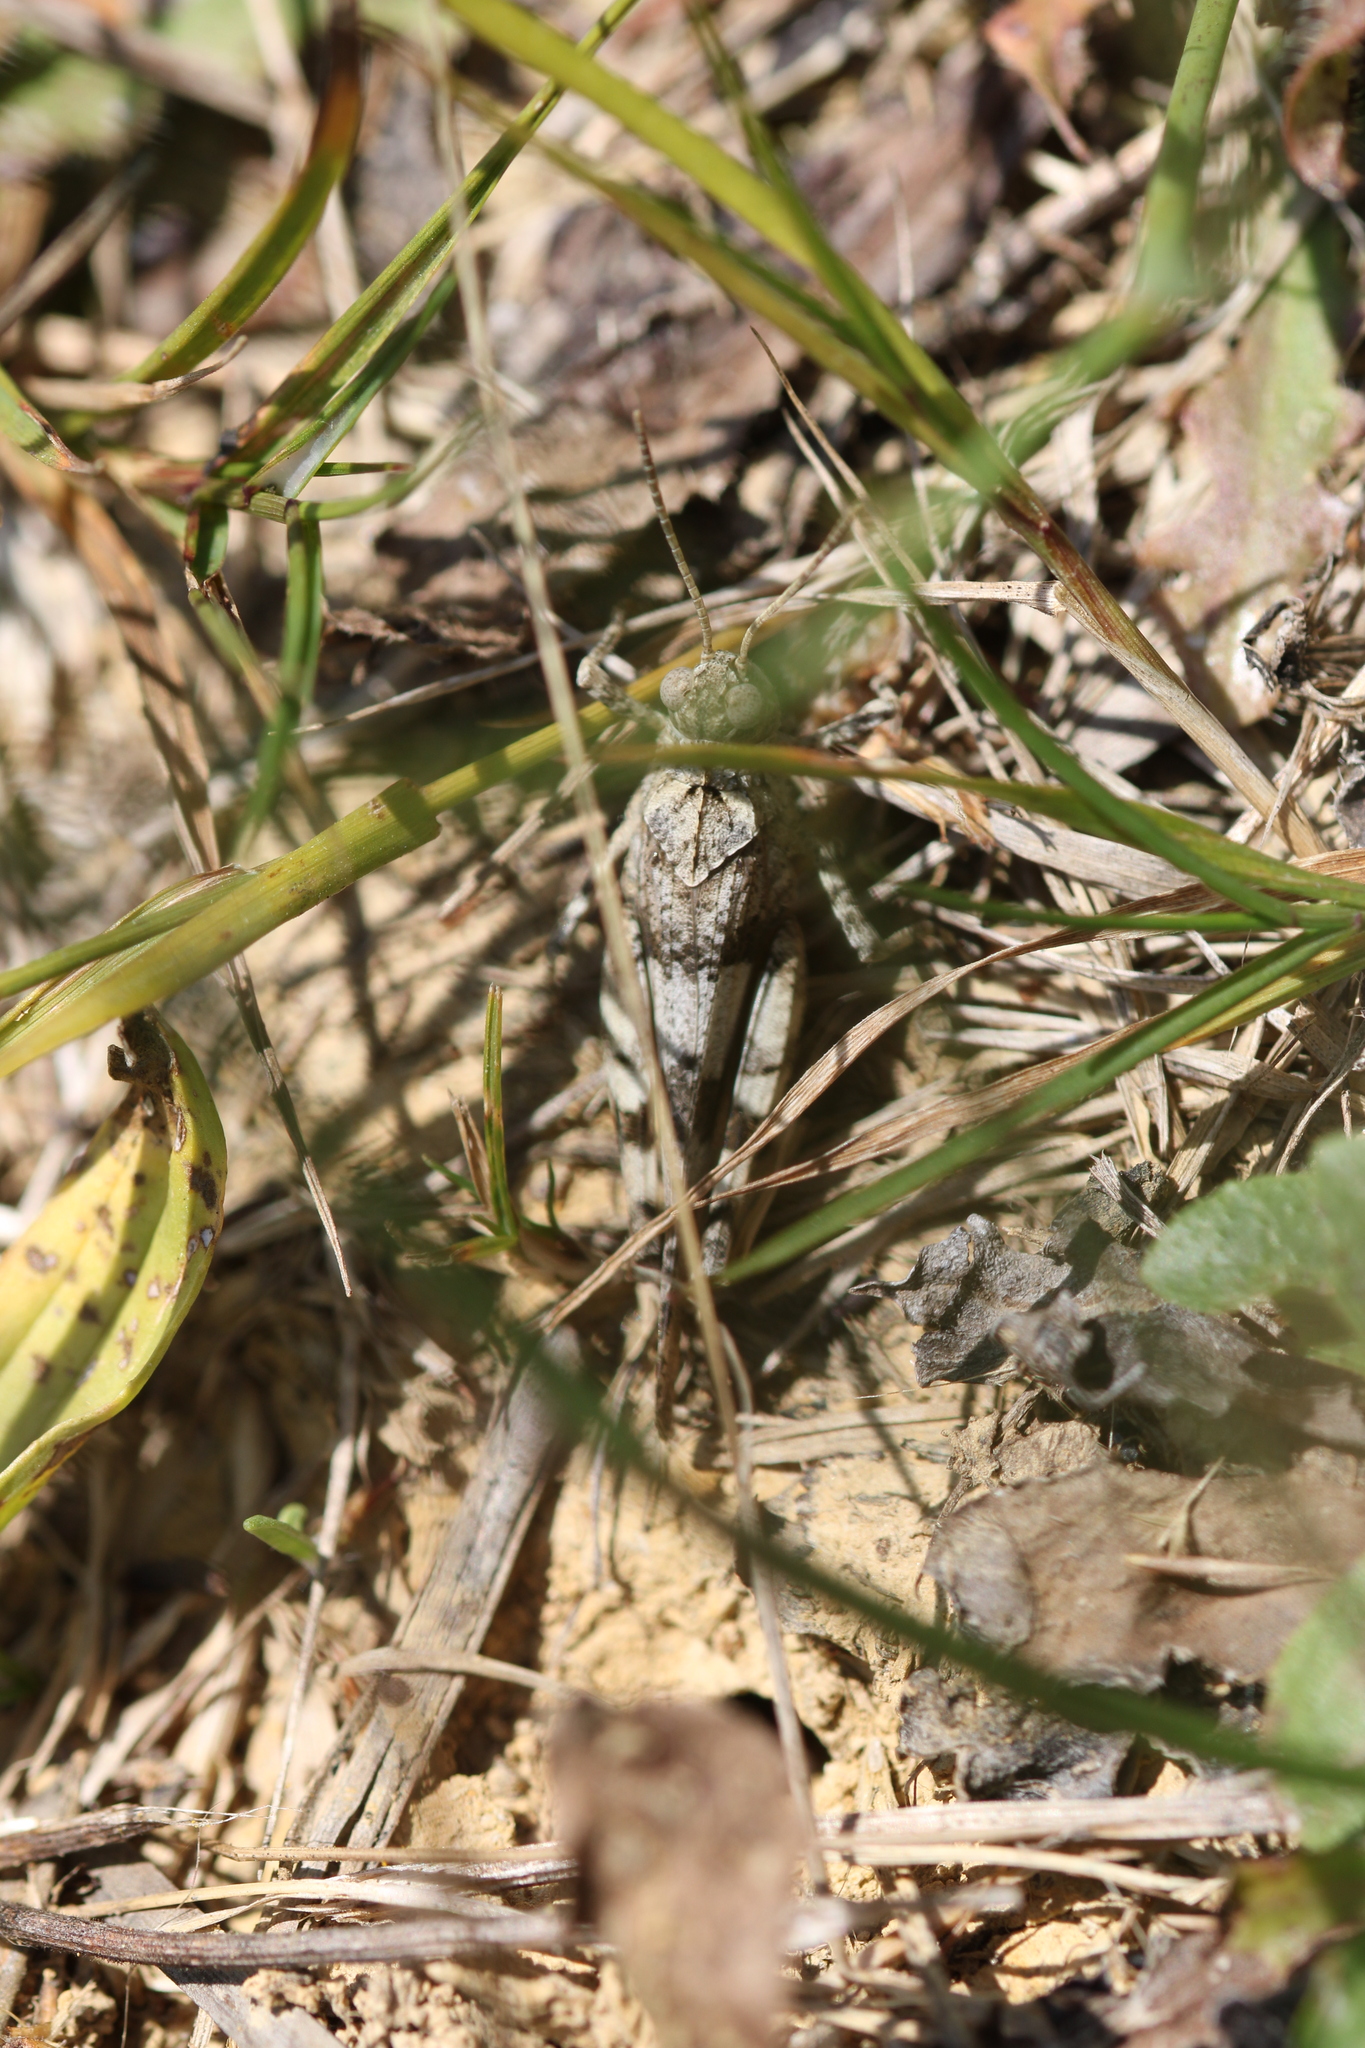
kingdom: Animalia
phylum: Arthropoda
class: Insecta
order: Orthoptera
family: Acrididae
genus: Oedipoda
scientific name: Oedipoda caerulescens
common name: Blue-winged grasshopper
